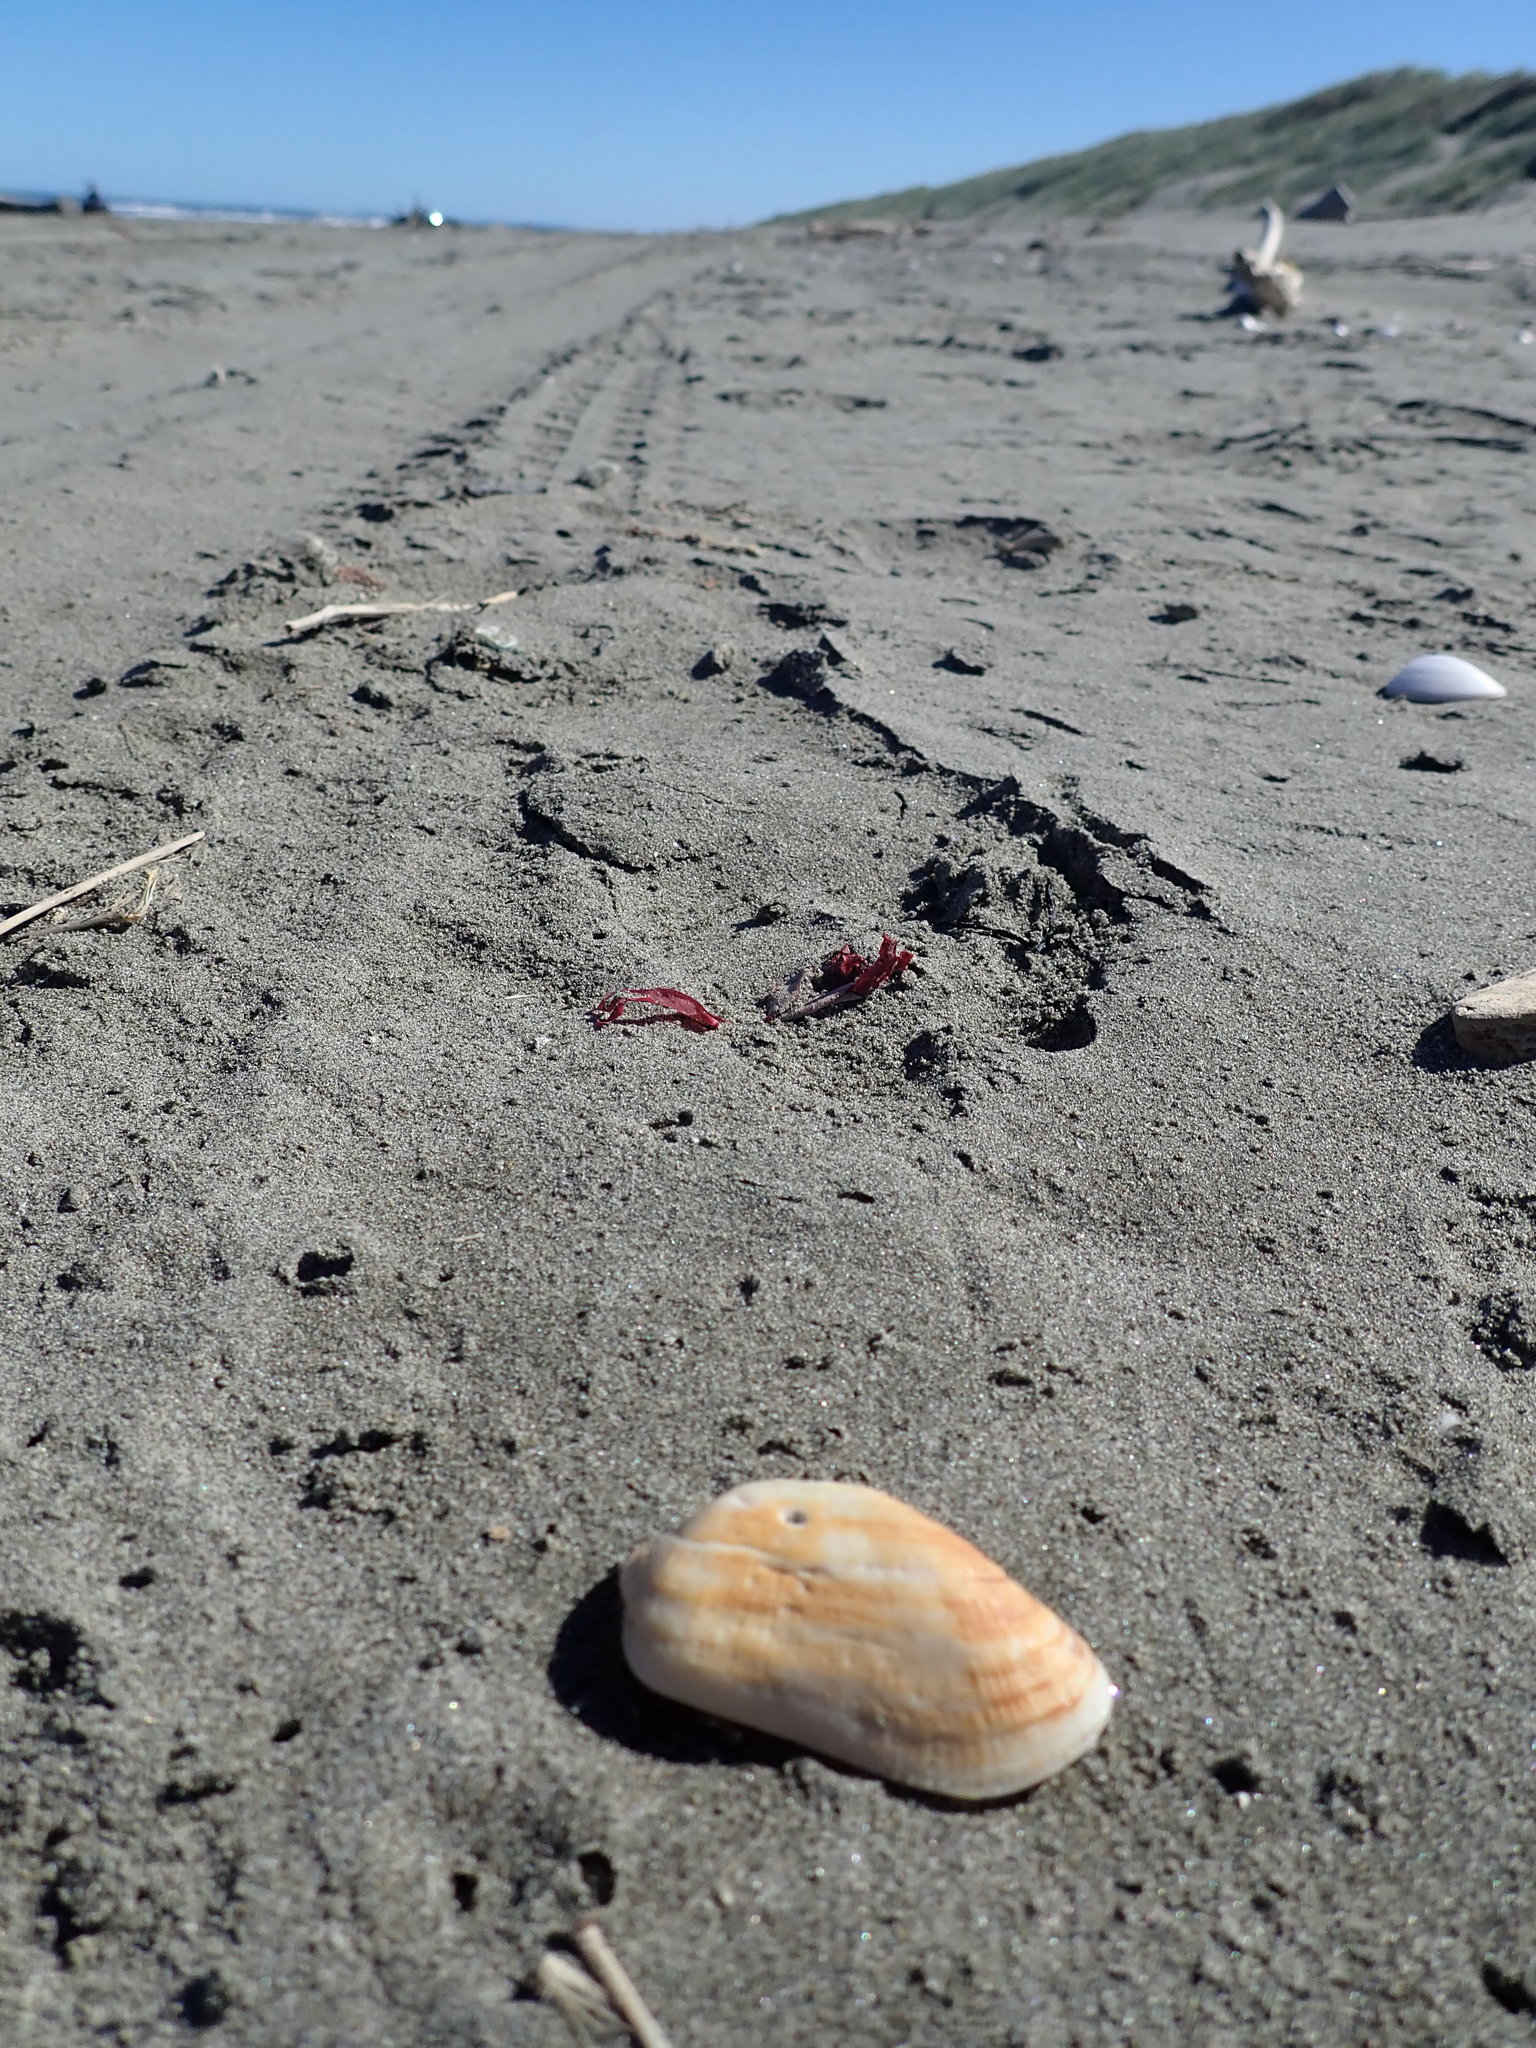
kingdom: Animalia
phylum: Mollusca
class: Bivalvia
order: Arcida
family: Arcidae
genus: Barbatia
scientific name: Barbatia novaezealandiae
